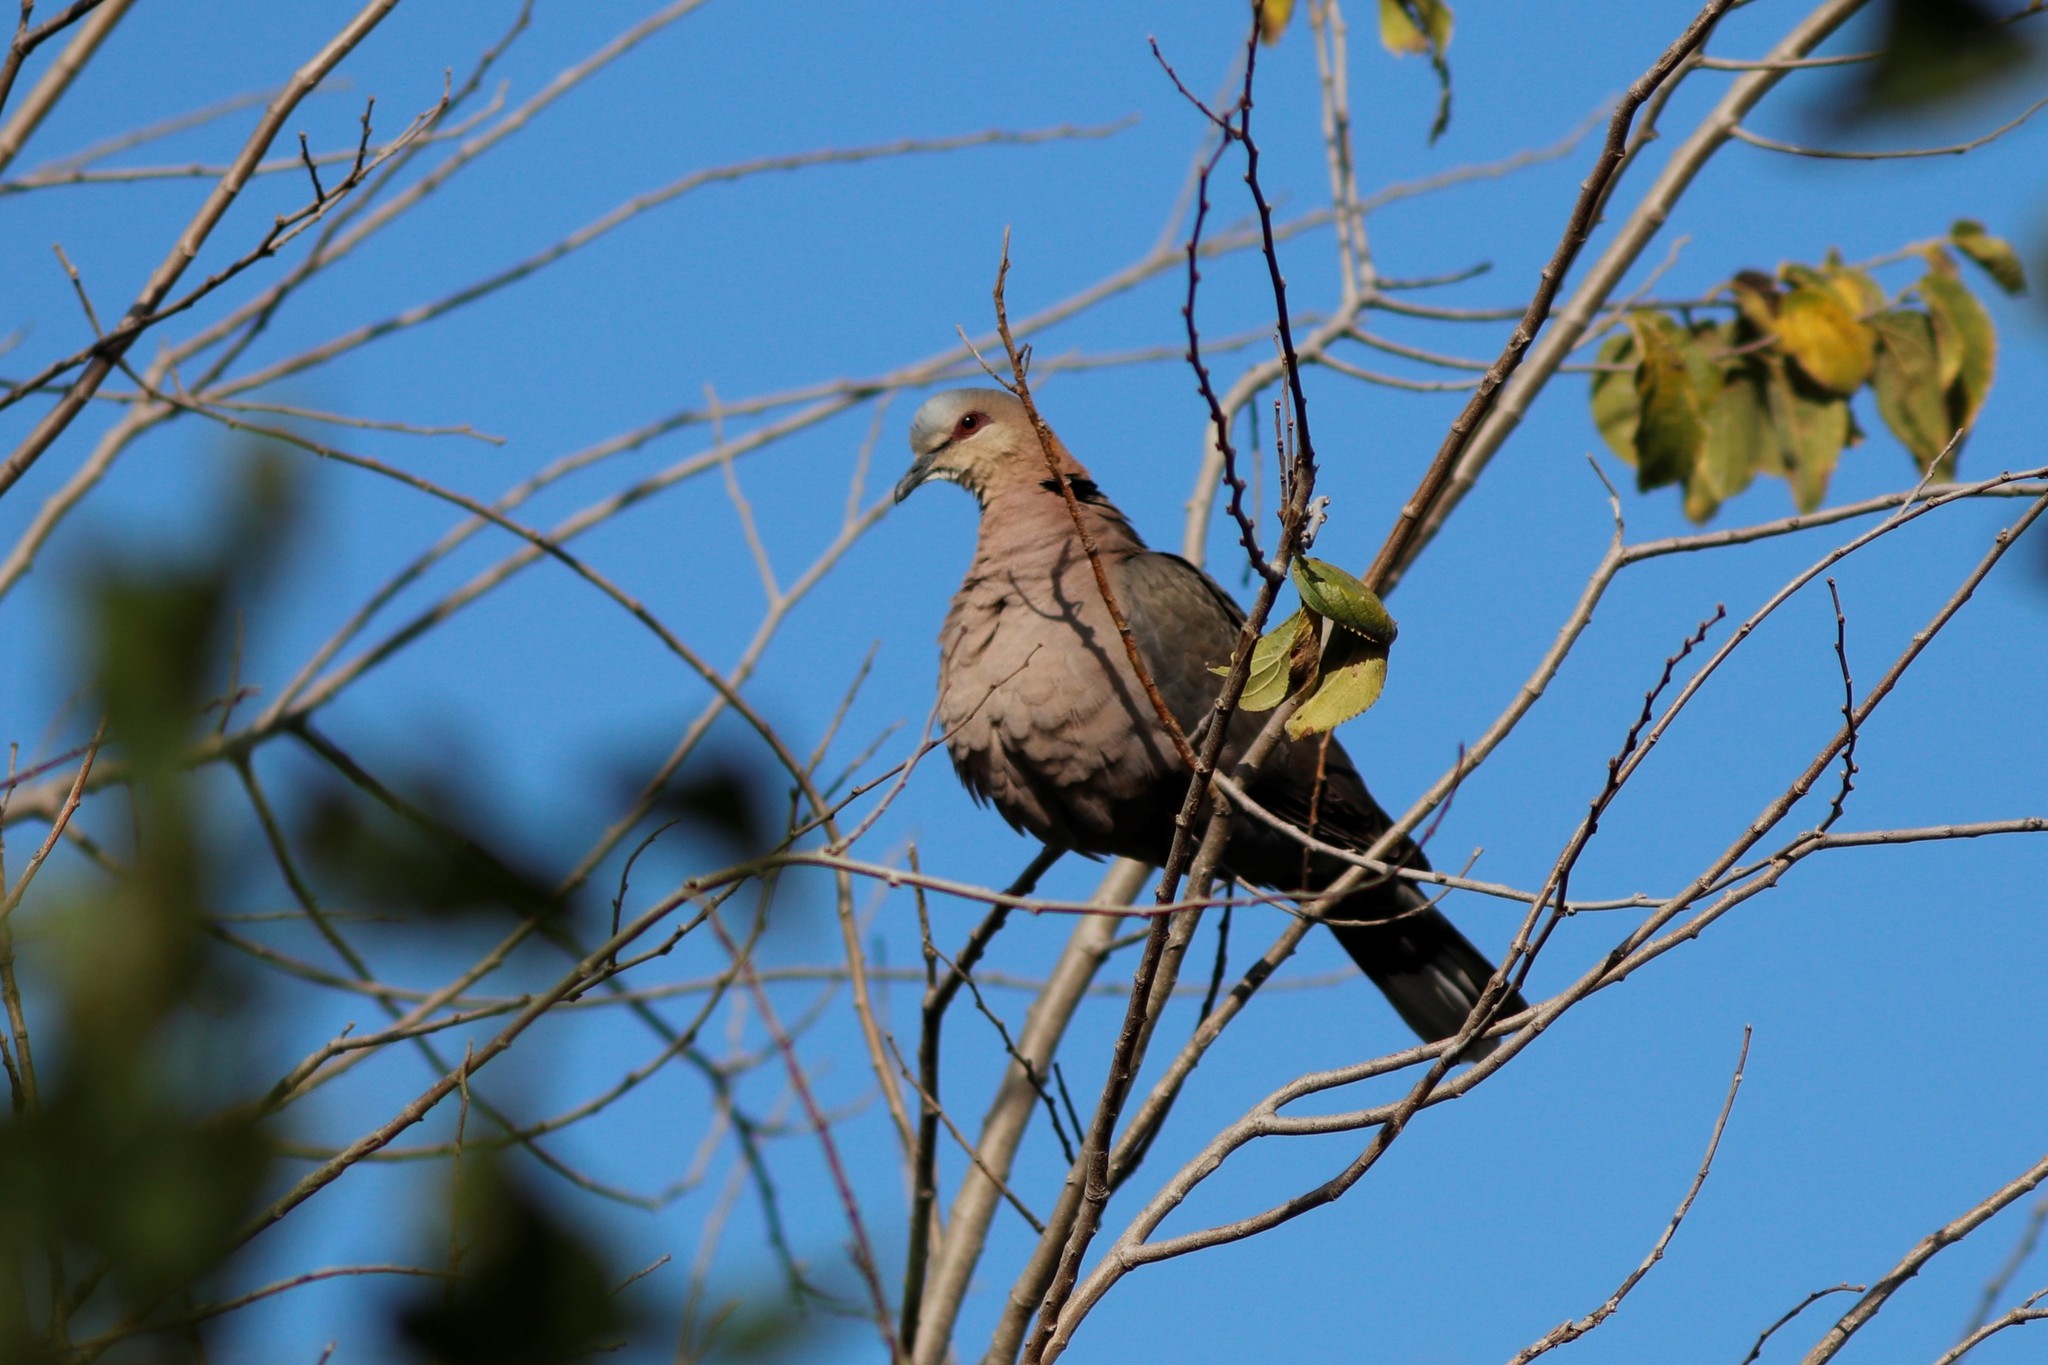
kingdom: Animalia
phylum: Chordata
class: Aves
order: Columbiformes
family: Columbidae
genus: Streptopelia
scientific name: Streptopelia semitorquata
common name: Red-eyed dove
